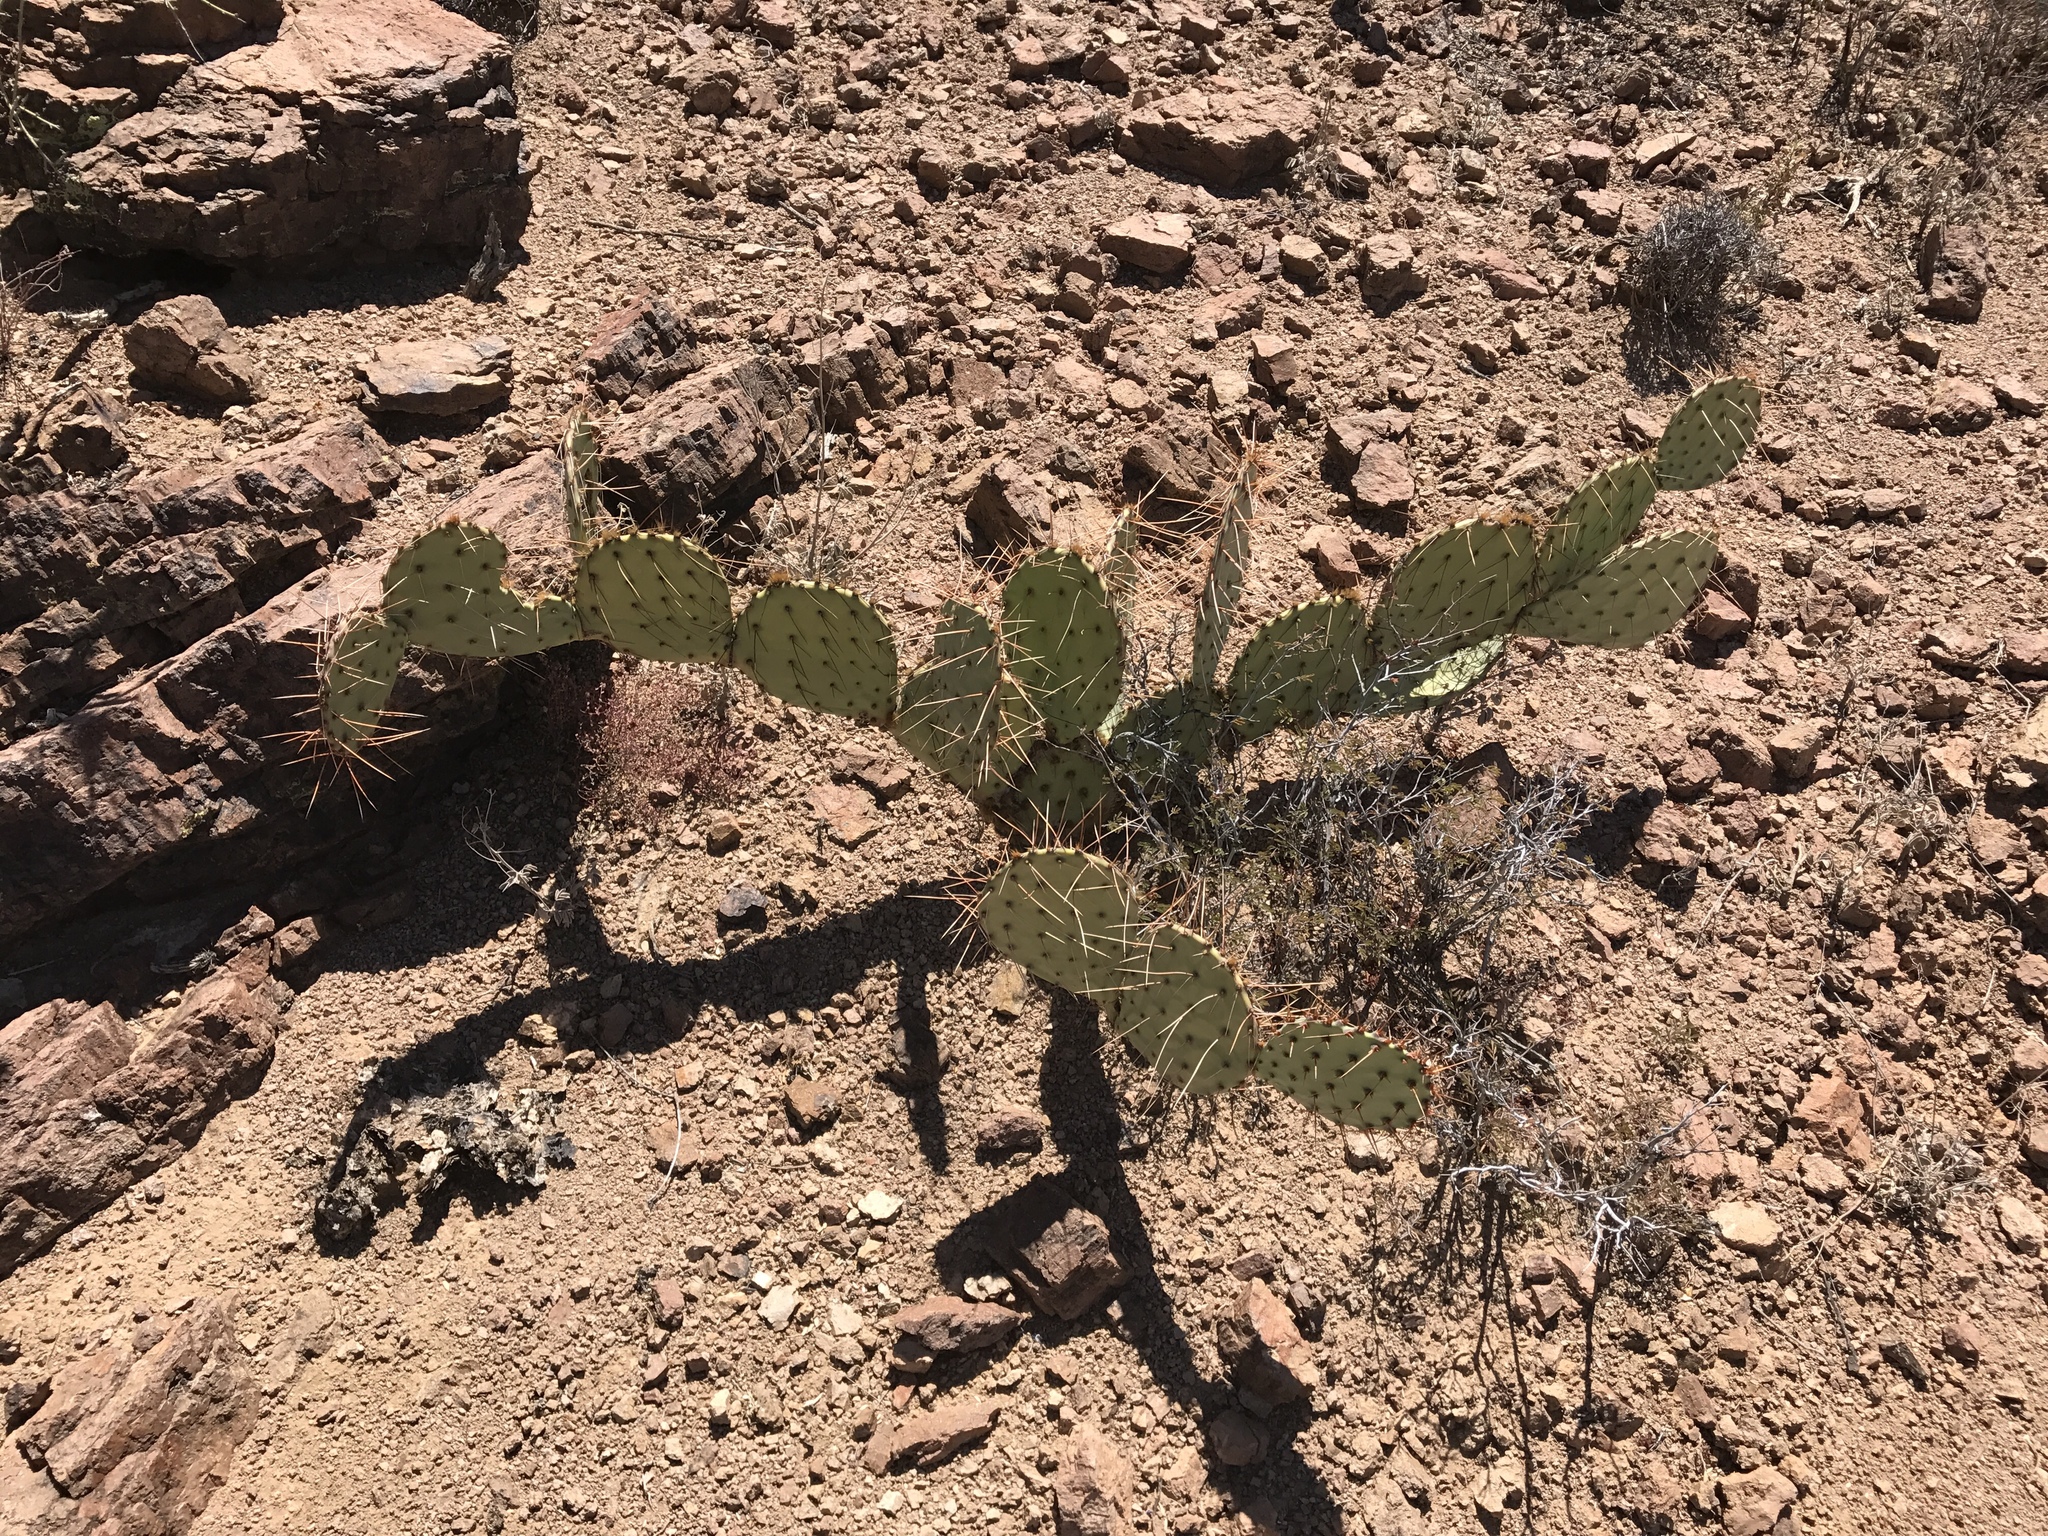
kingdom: Plantae
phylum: Tracheophyta
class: Magnoliopsida
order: Caryophyllales
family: Cactaceae
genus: Opuntia
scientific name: Opuntia phaeacantha
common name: New mexico prickly-pear
